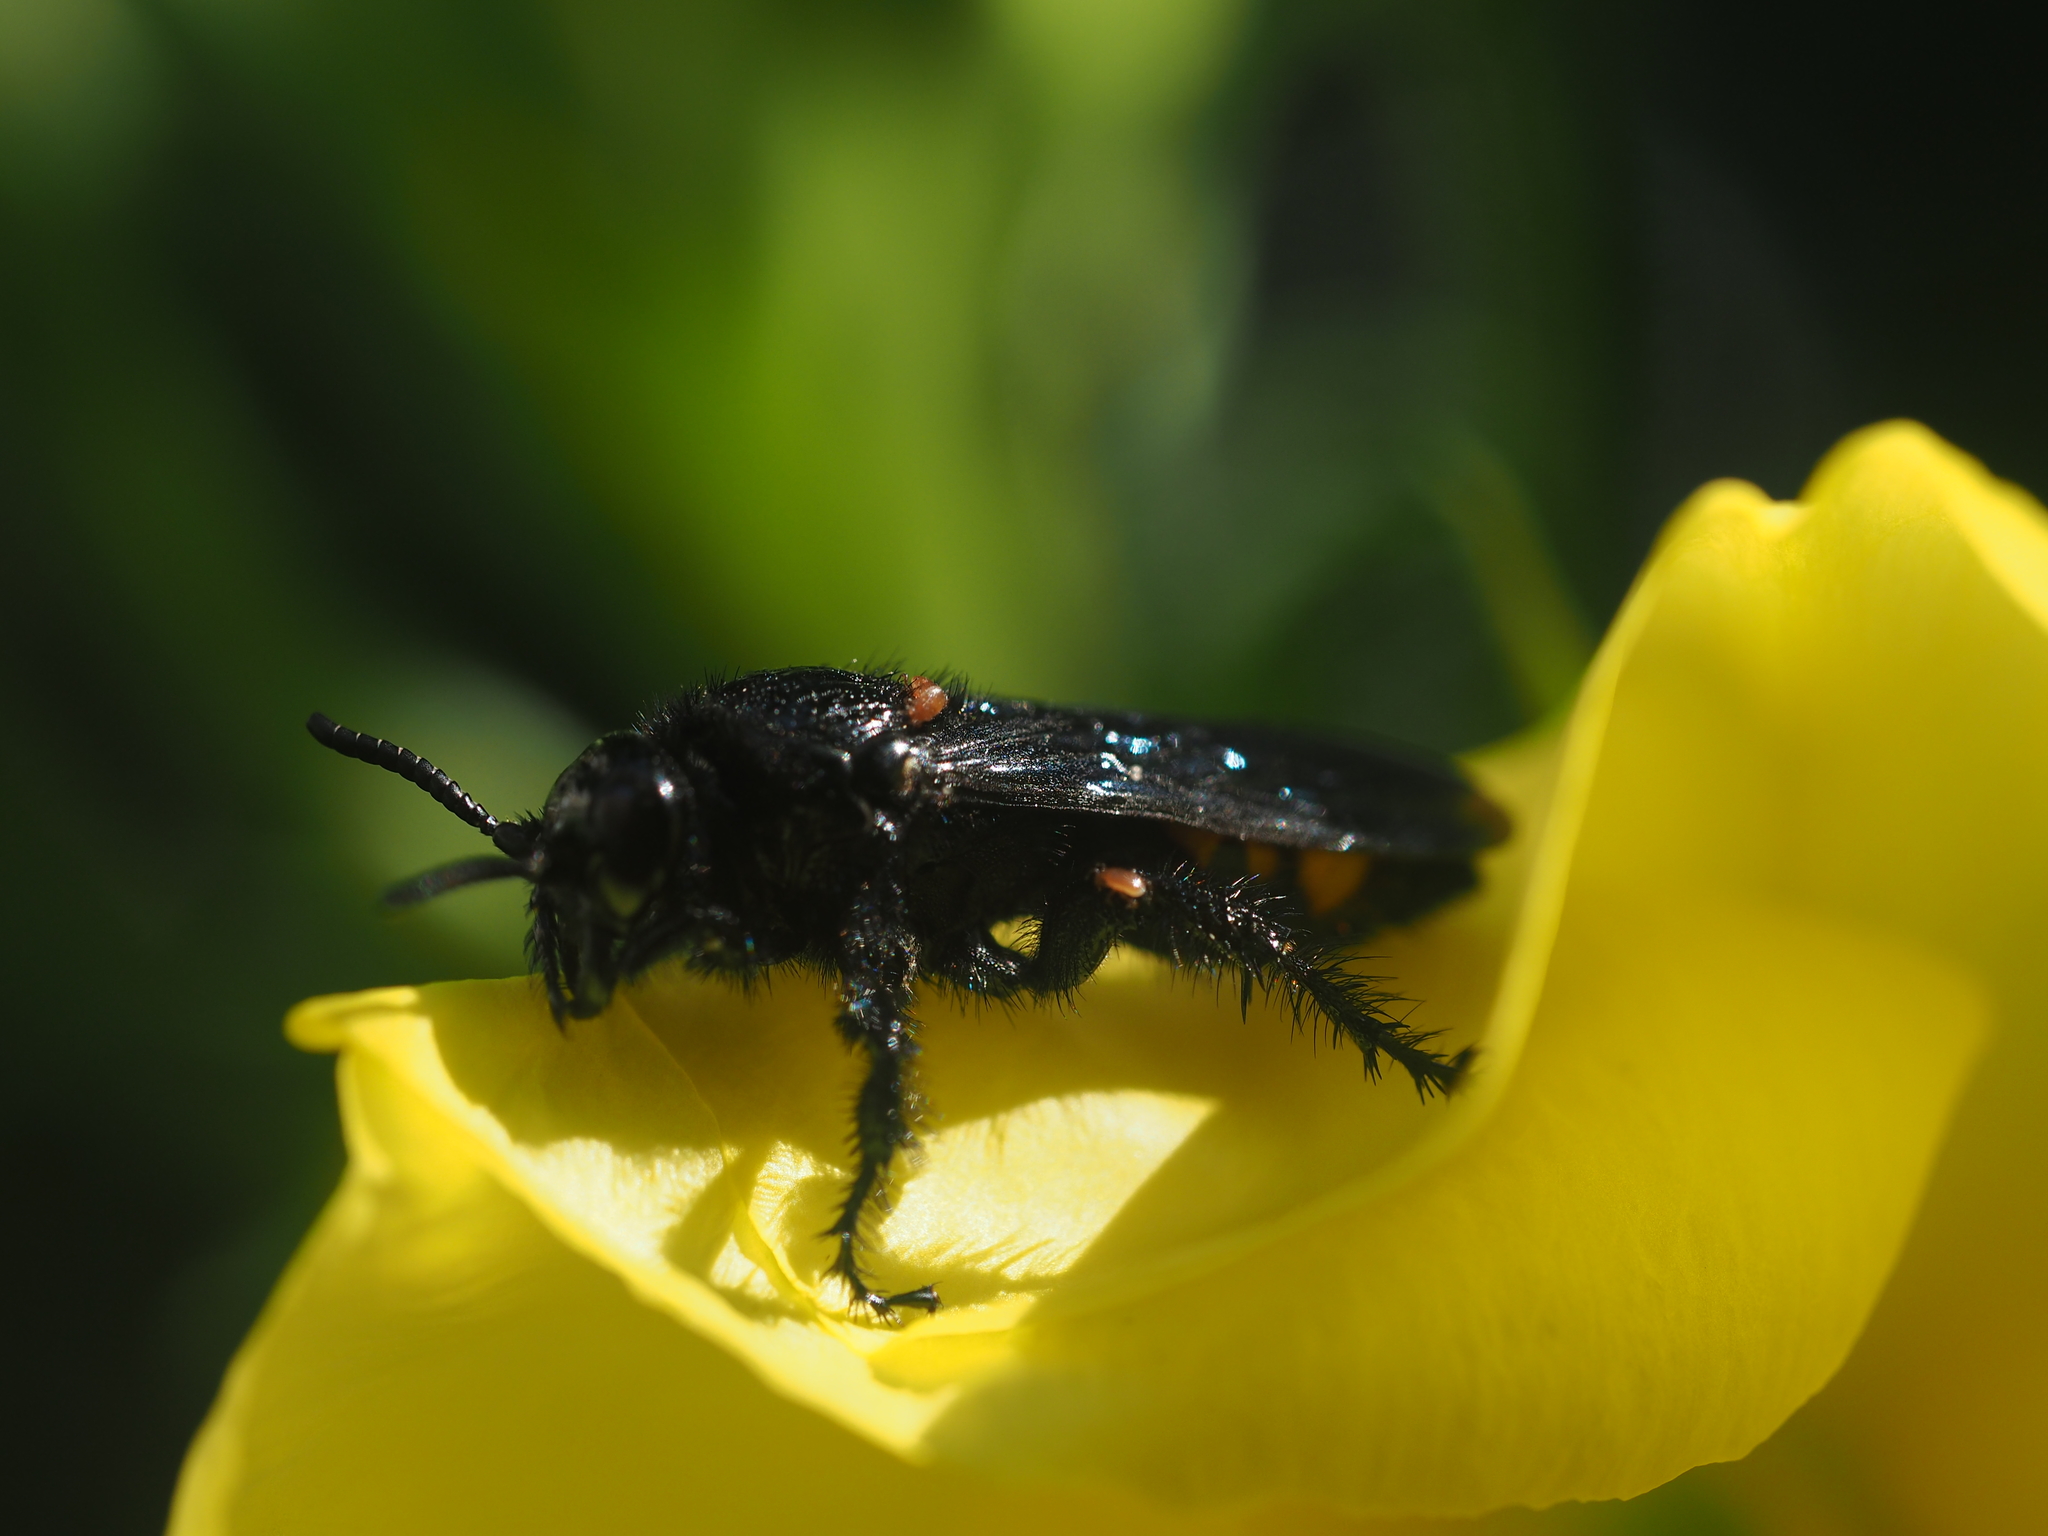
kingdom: Animalia
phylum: Arthropoda
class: Insecta
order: Hymenoptera
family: Scoliidae
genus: Scolia
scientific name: Scolia hirta
